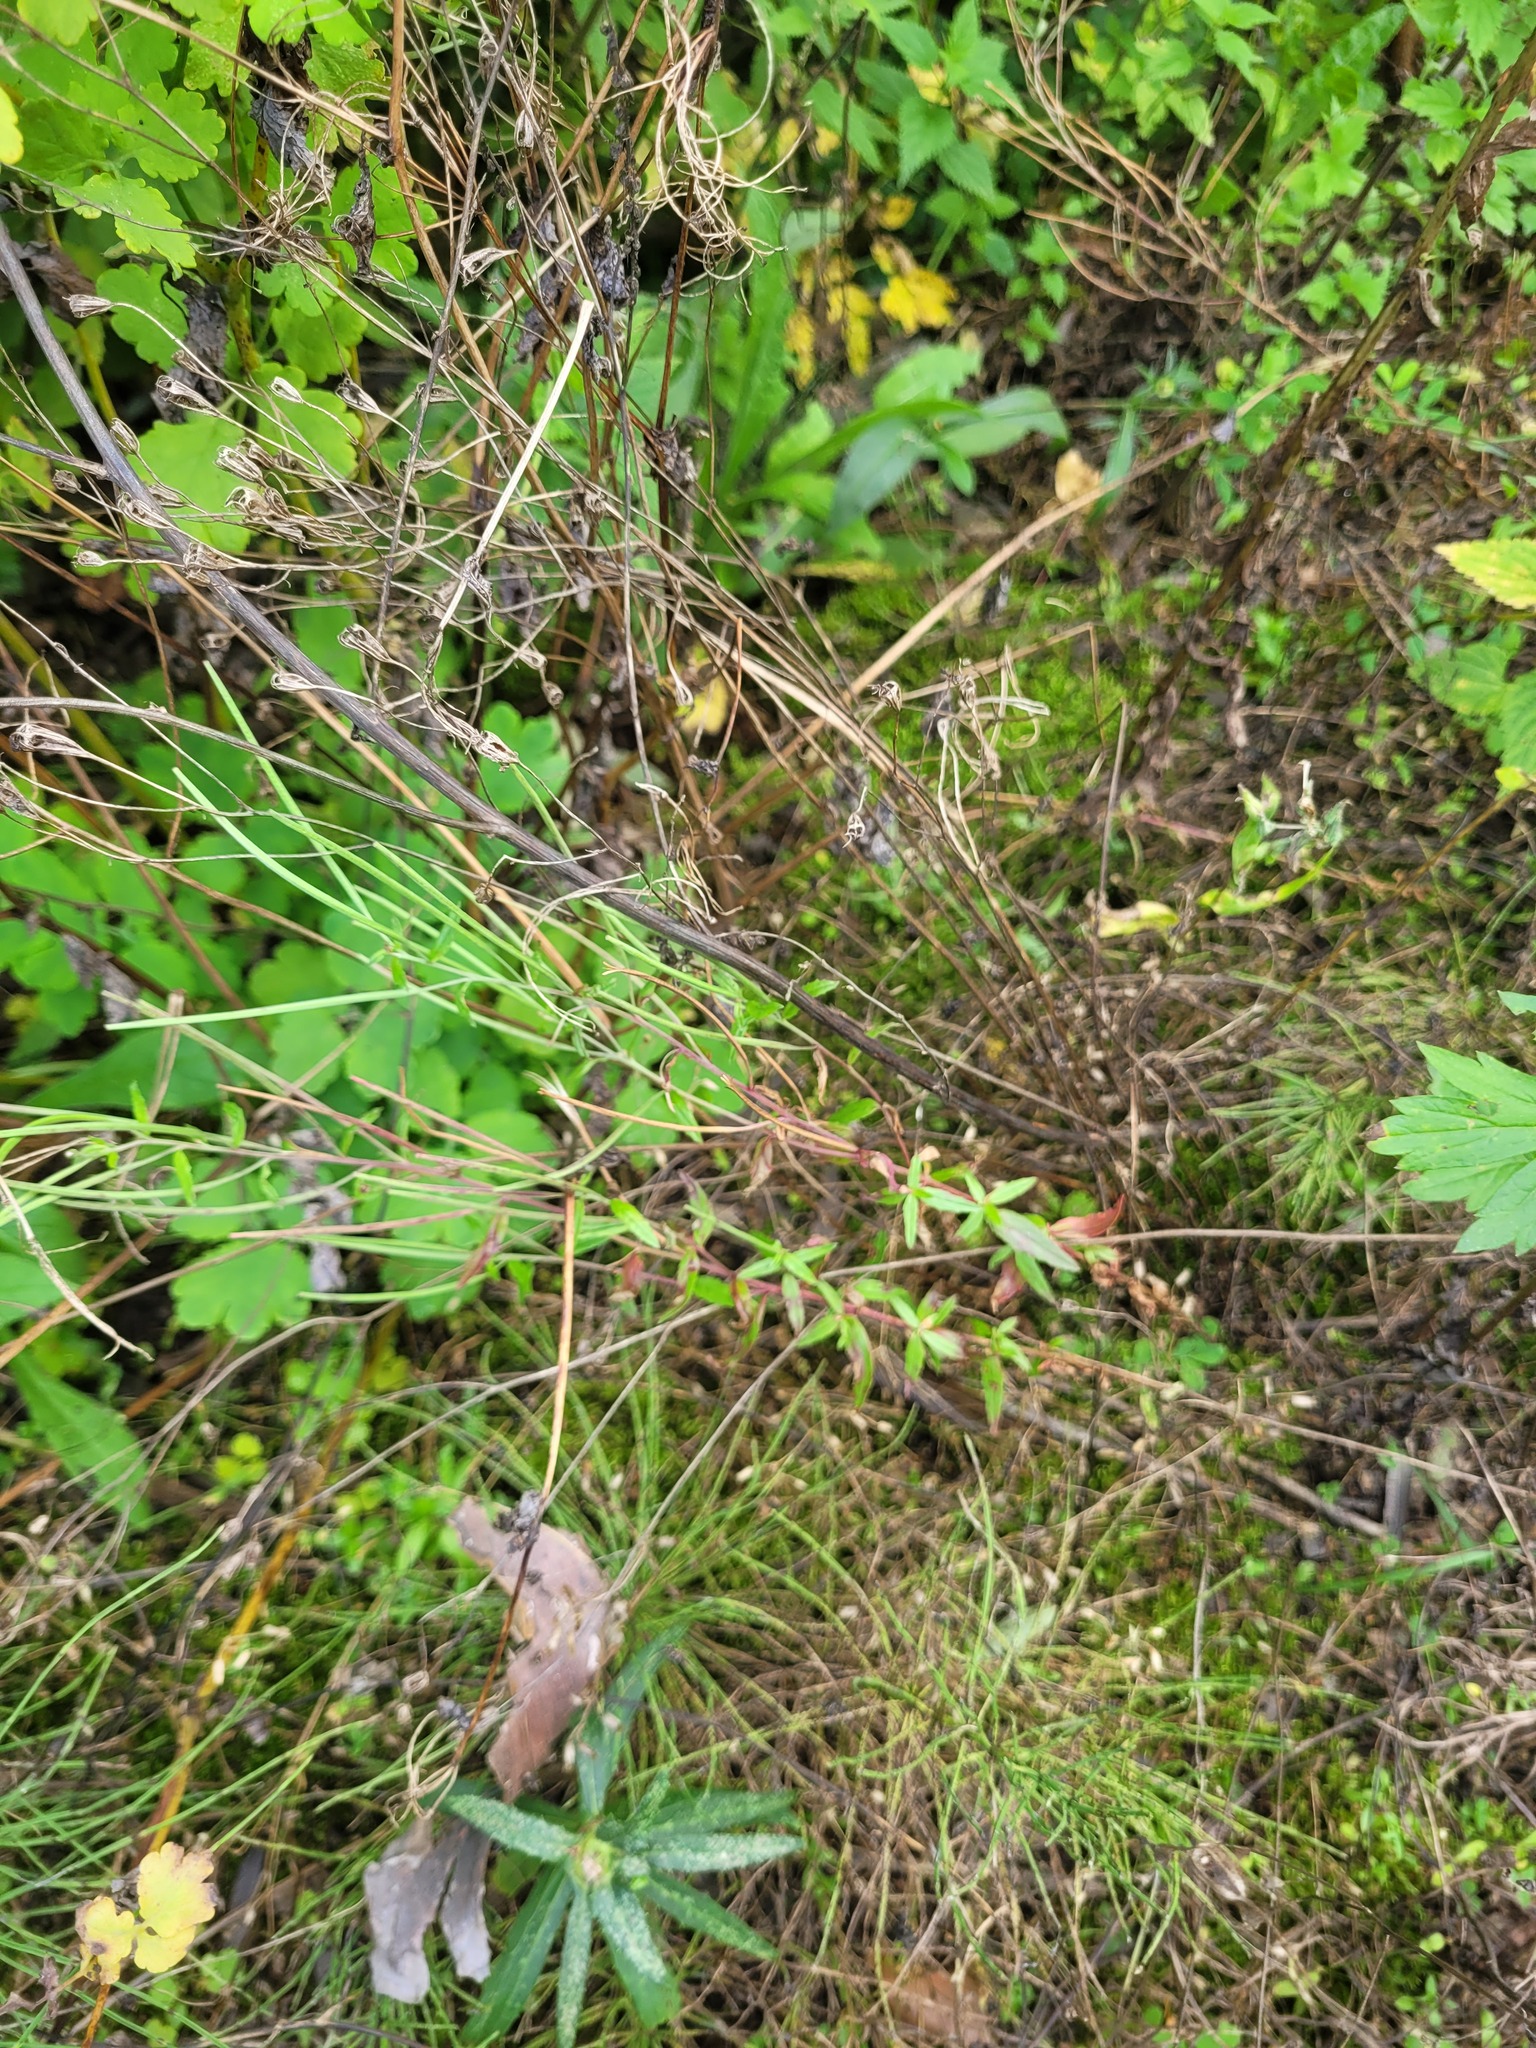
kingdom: Plantae
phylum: Tracheophyta
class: Magnoliopsida
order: Myrtales
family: Onagraceae
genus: Epilobium
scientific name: Epilobium lamyi
